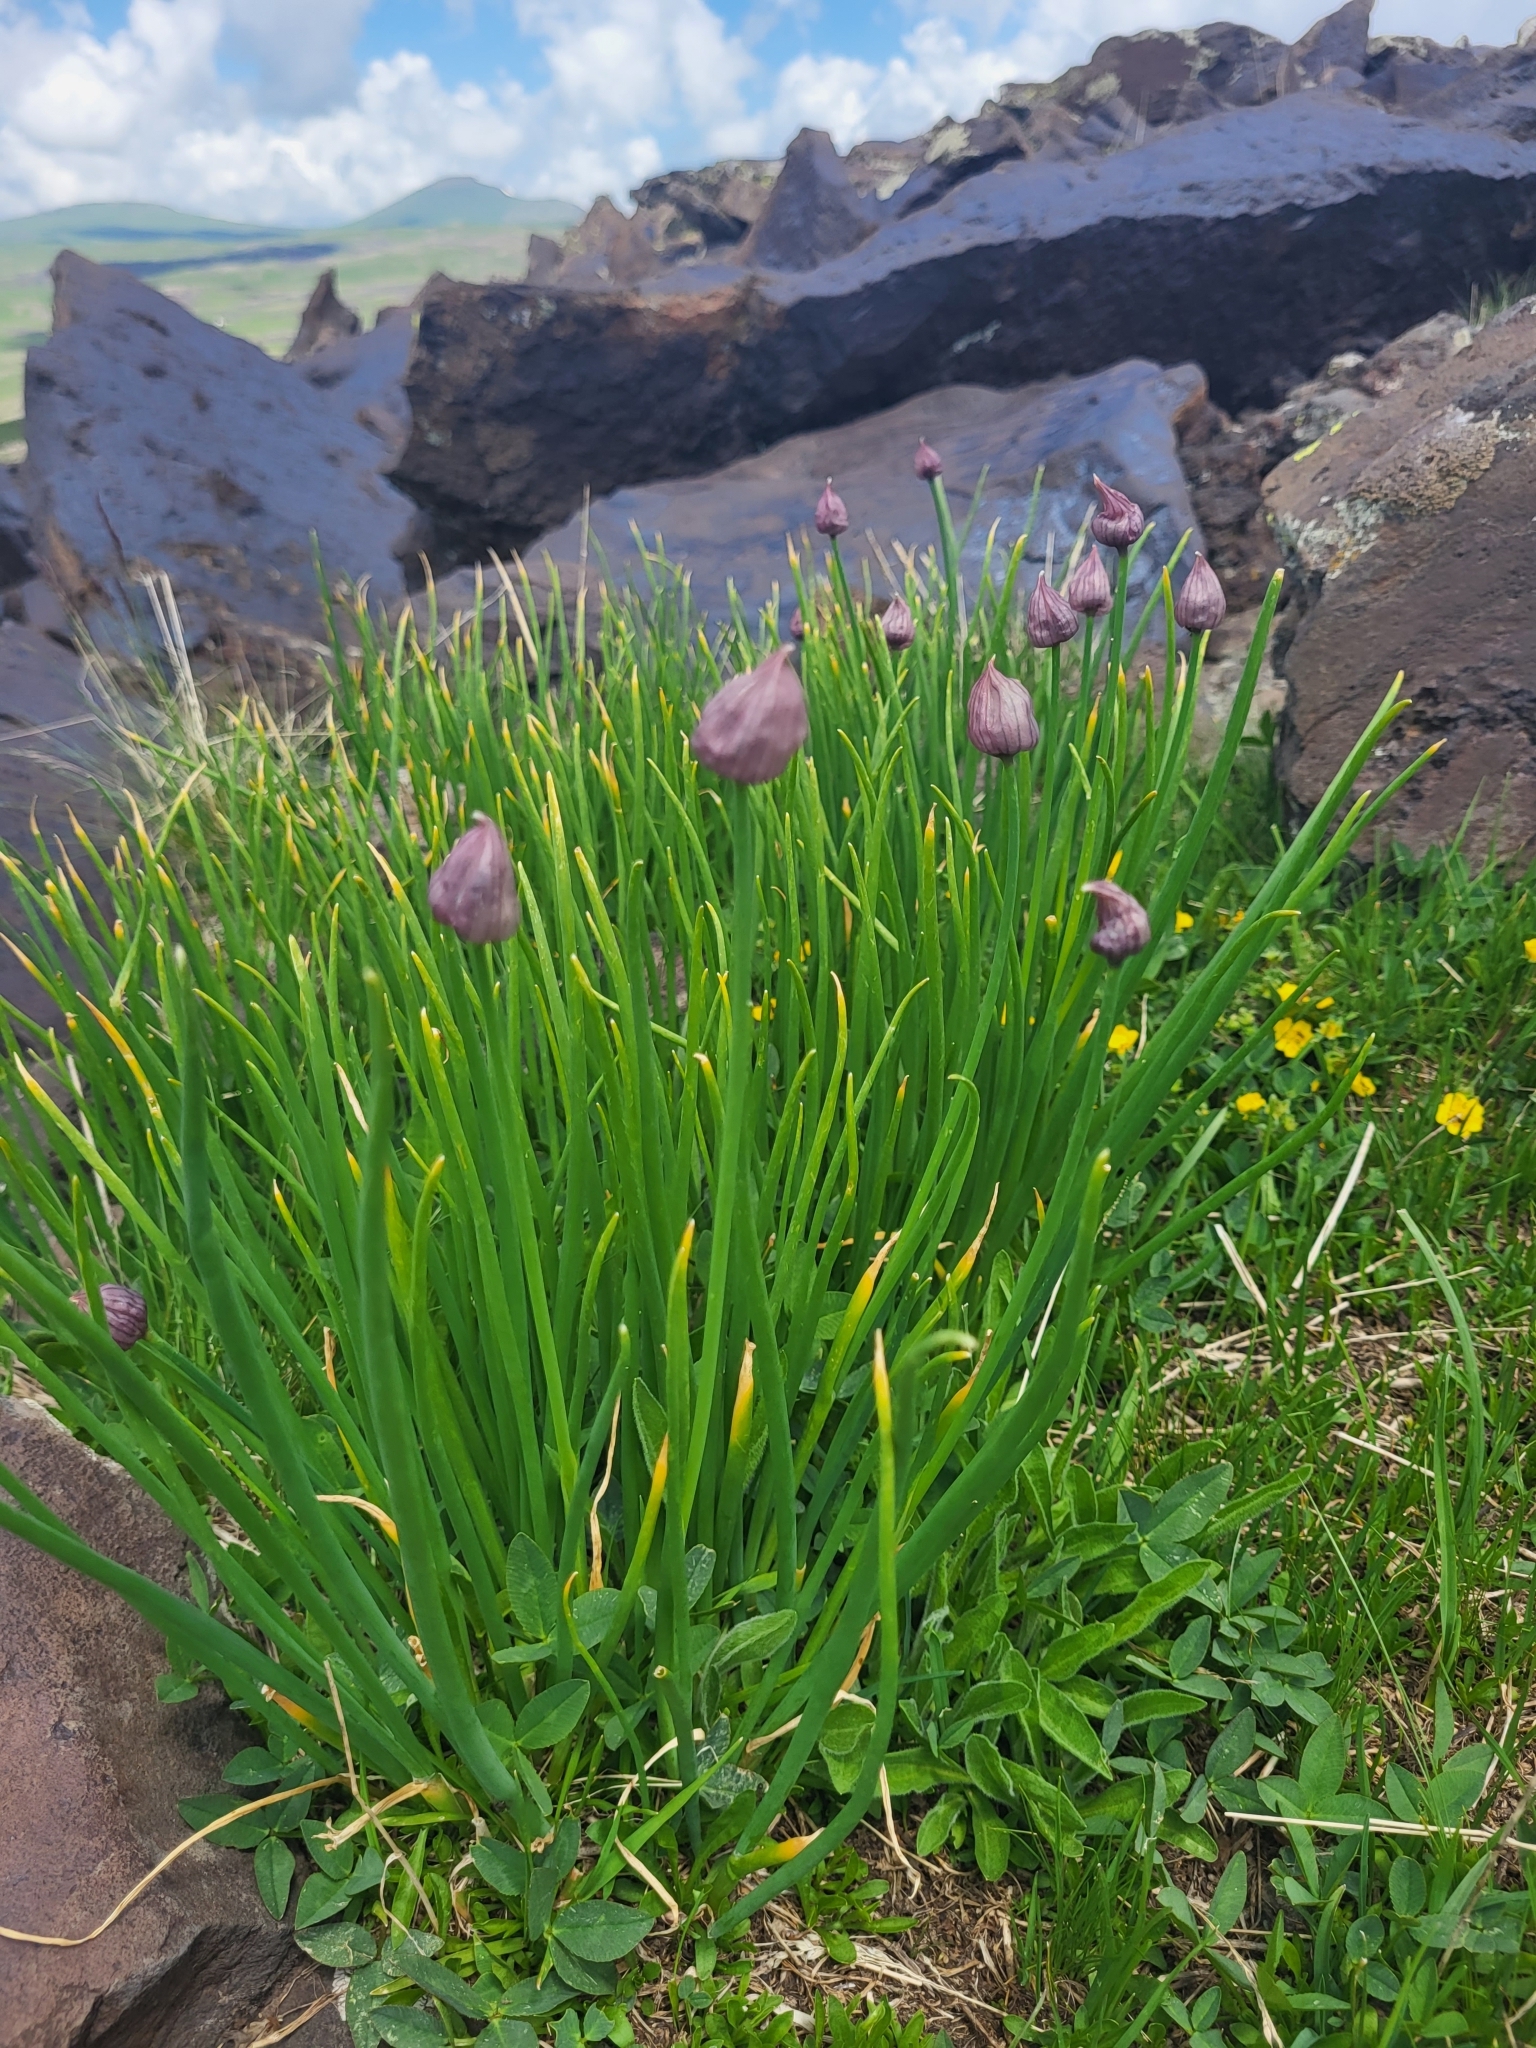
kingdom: Plantae
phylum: Tracheophyta
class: Liliopsida
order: Asparagales
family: Amaryllidaceae
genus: Allium
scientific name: Allium schoenoprasum
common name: Chives
